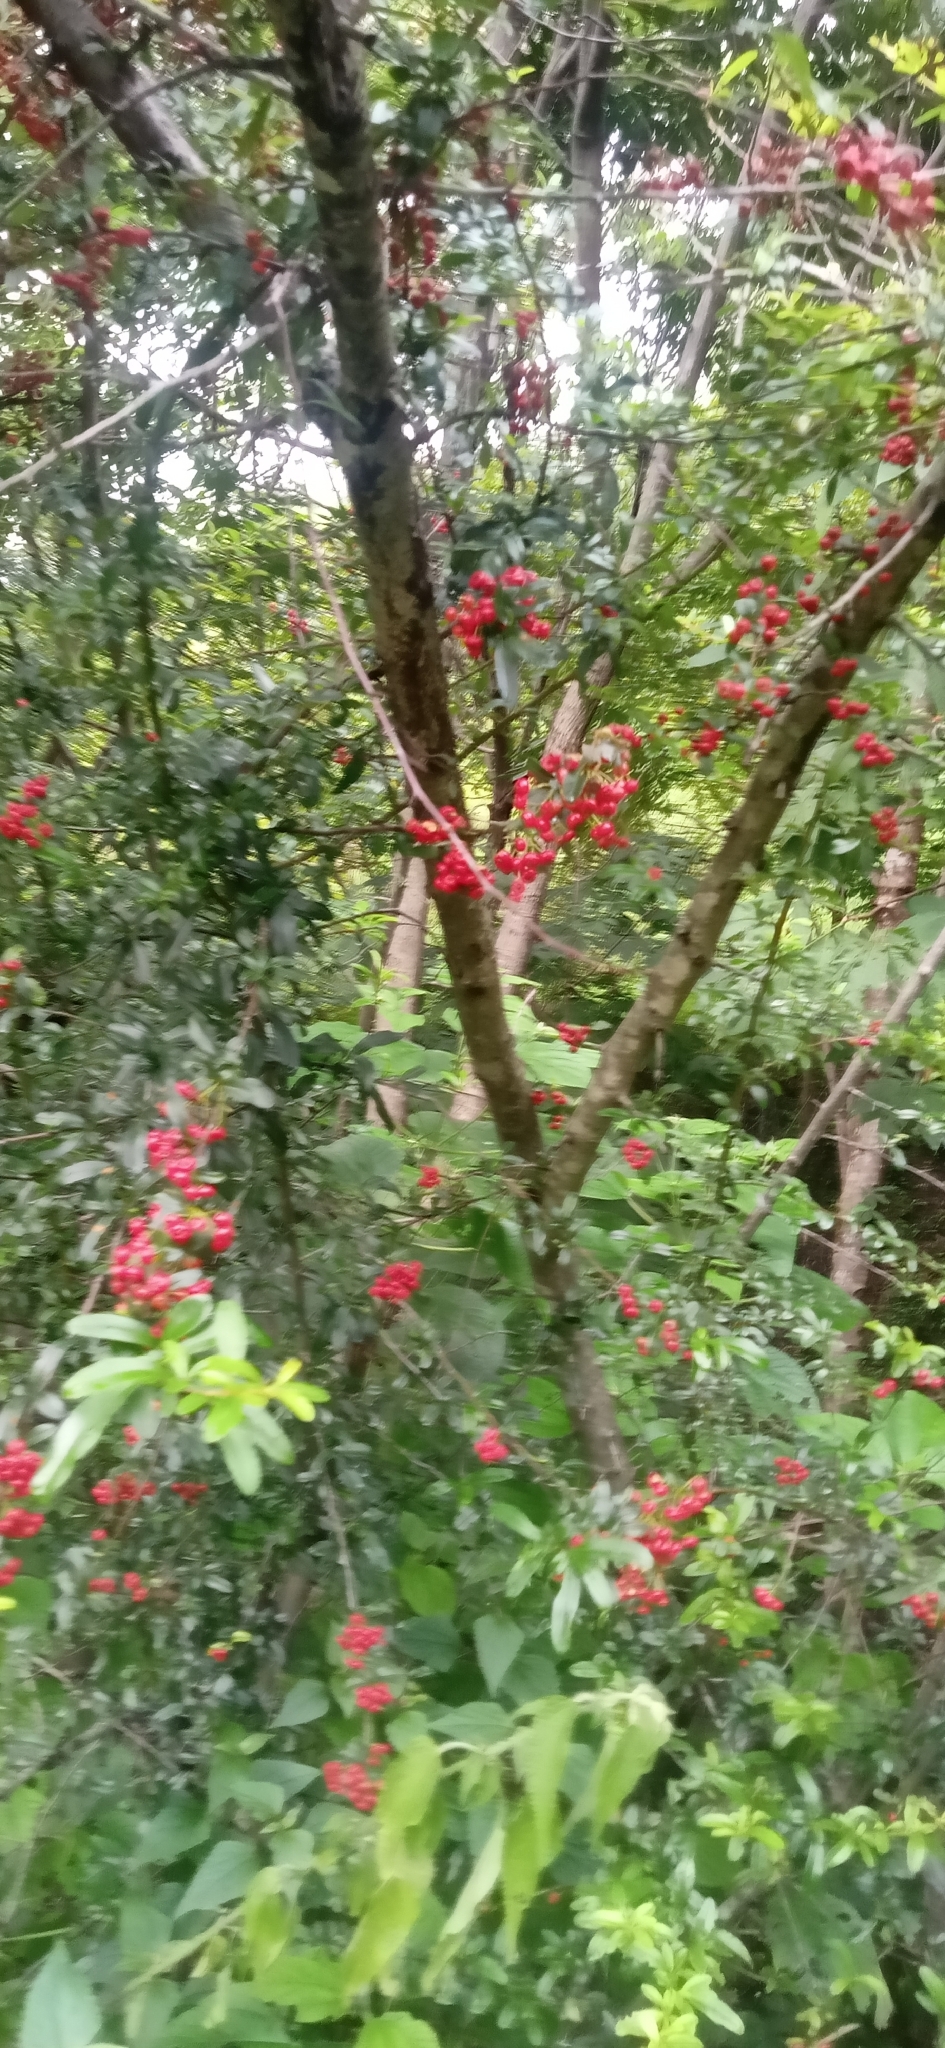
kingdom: Plantae
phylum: Tracheophyta
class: Magnoliopsida
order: Rosales
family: Rosaceae
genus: Pyracantha
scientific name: Pyracantha crenulata
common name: Nepalese firethorn
